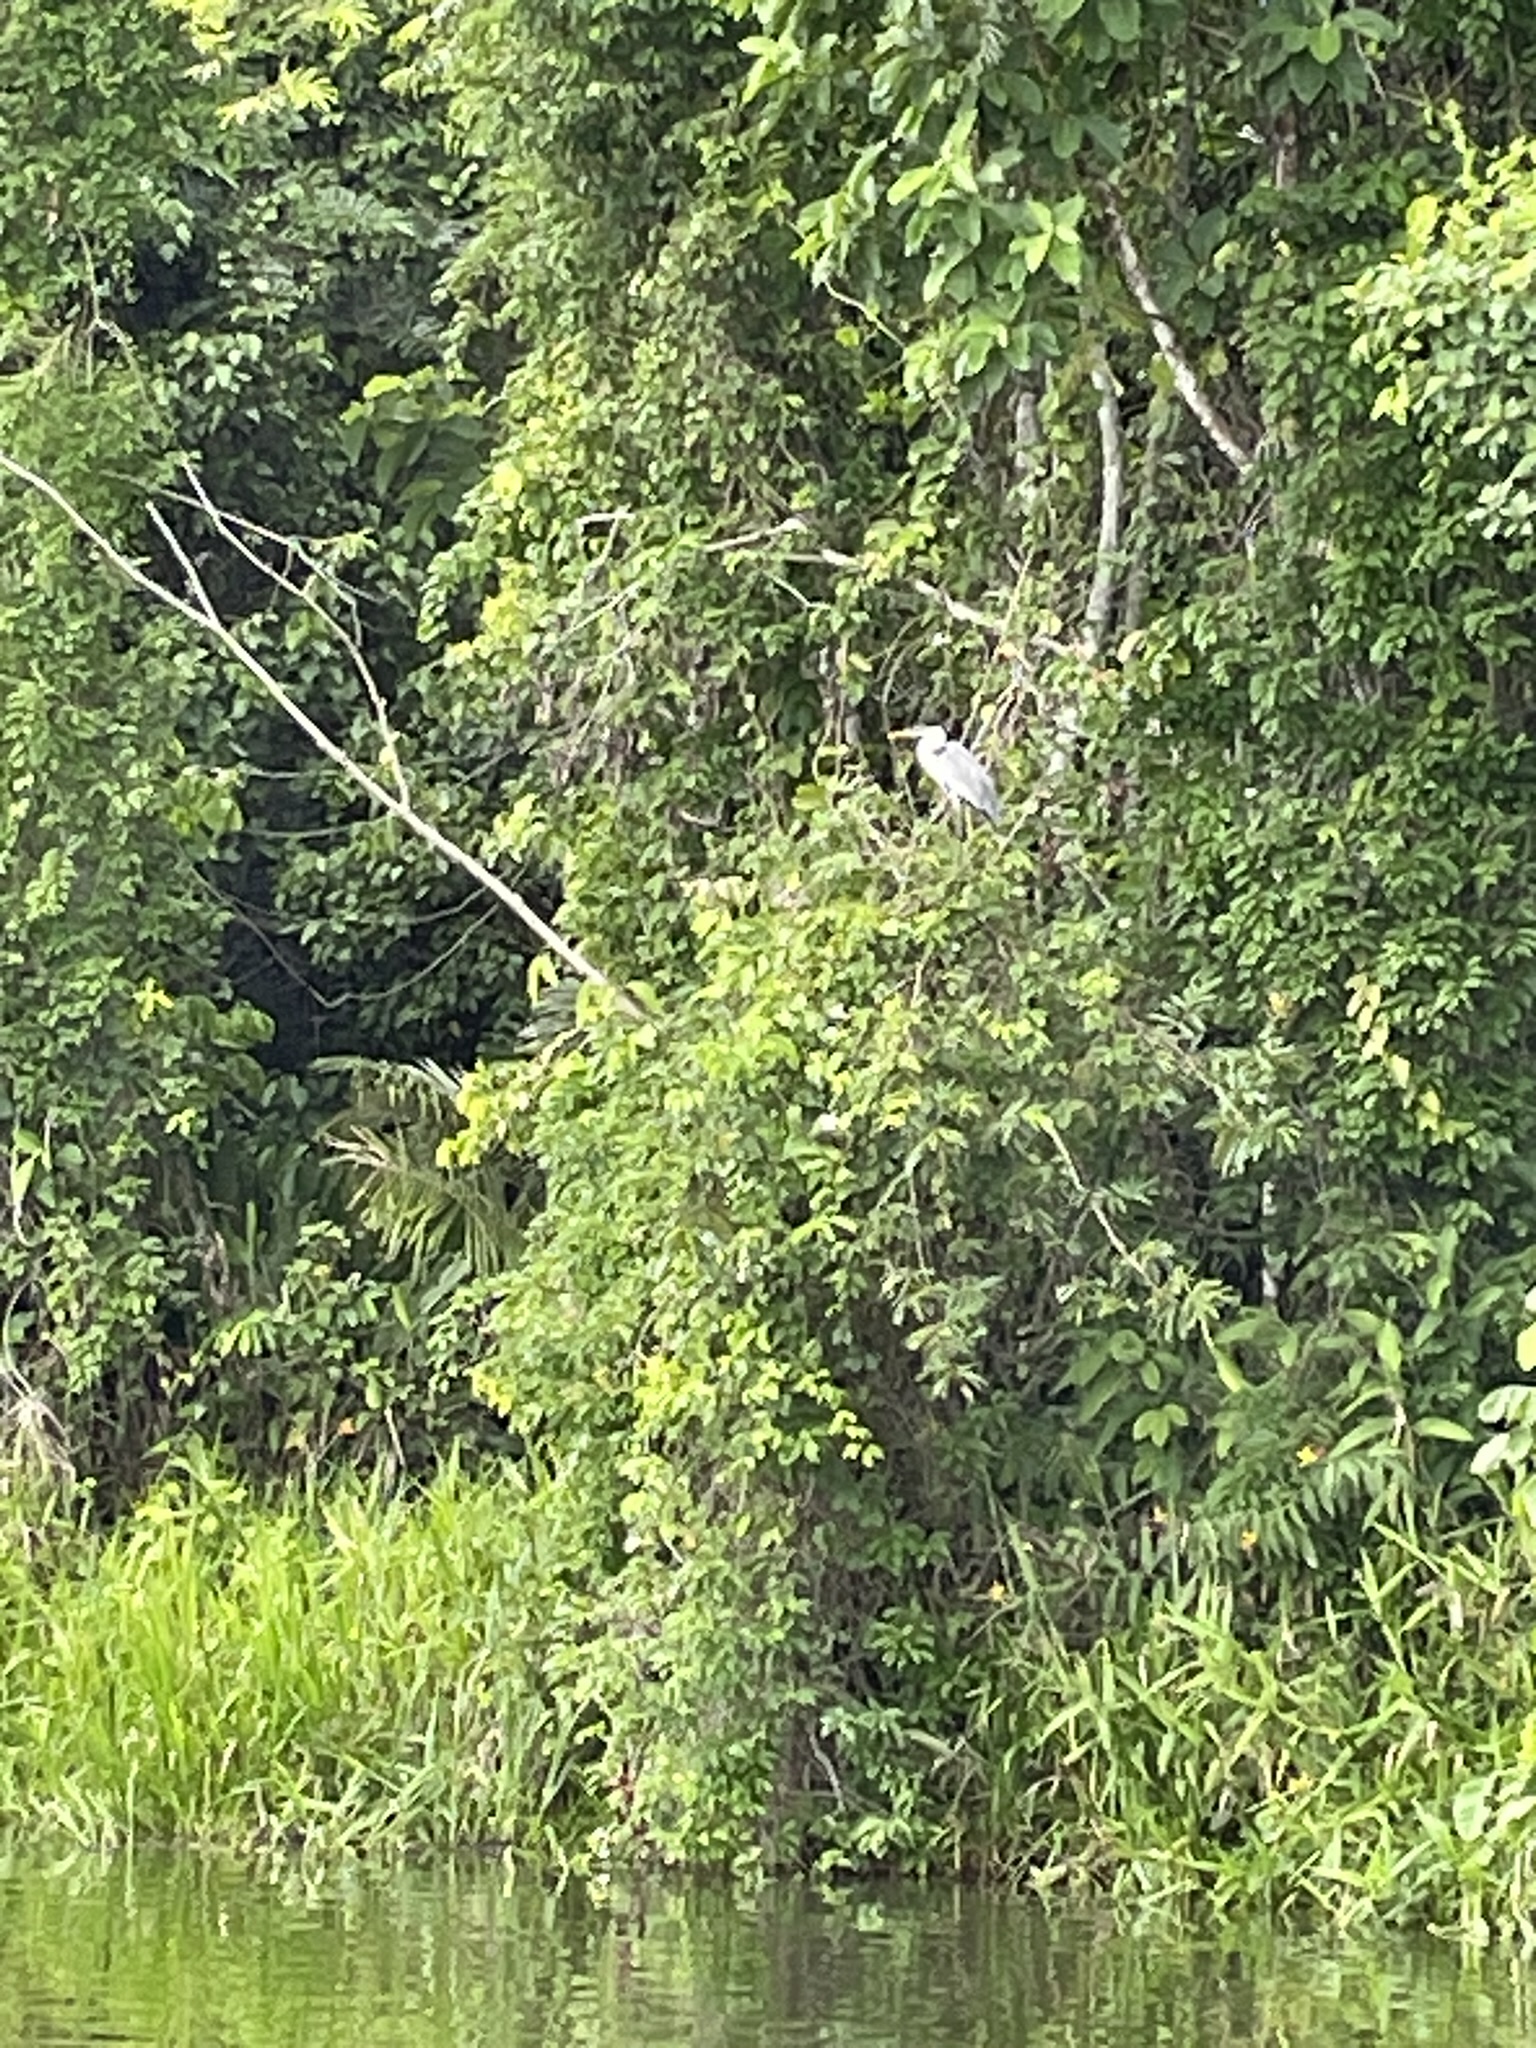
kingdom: Animalia
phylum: Chordata
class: Aves
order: Pelecaniformes
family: Ardeidae
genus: Ardea
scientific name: Ardea cocoi
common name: Cocoi heron
